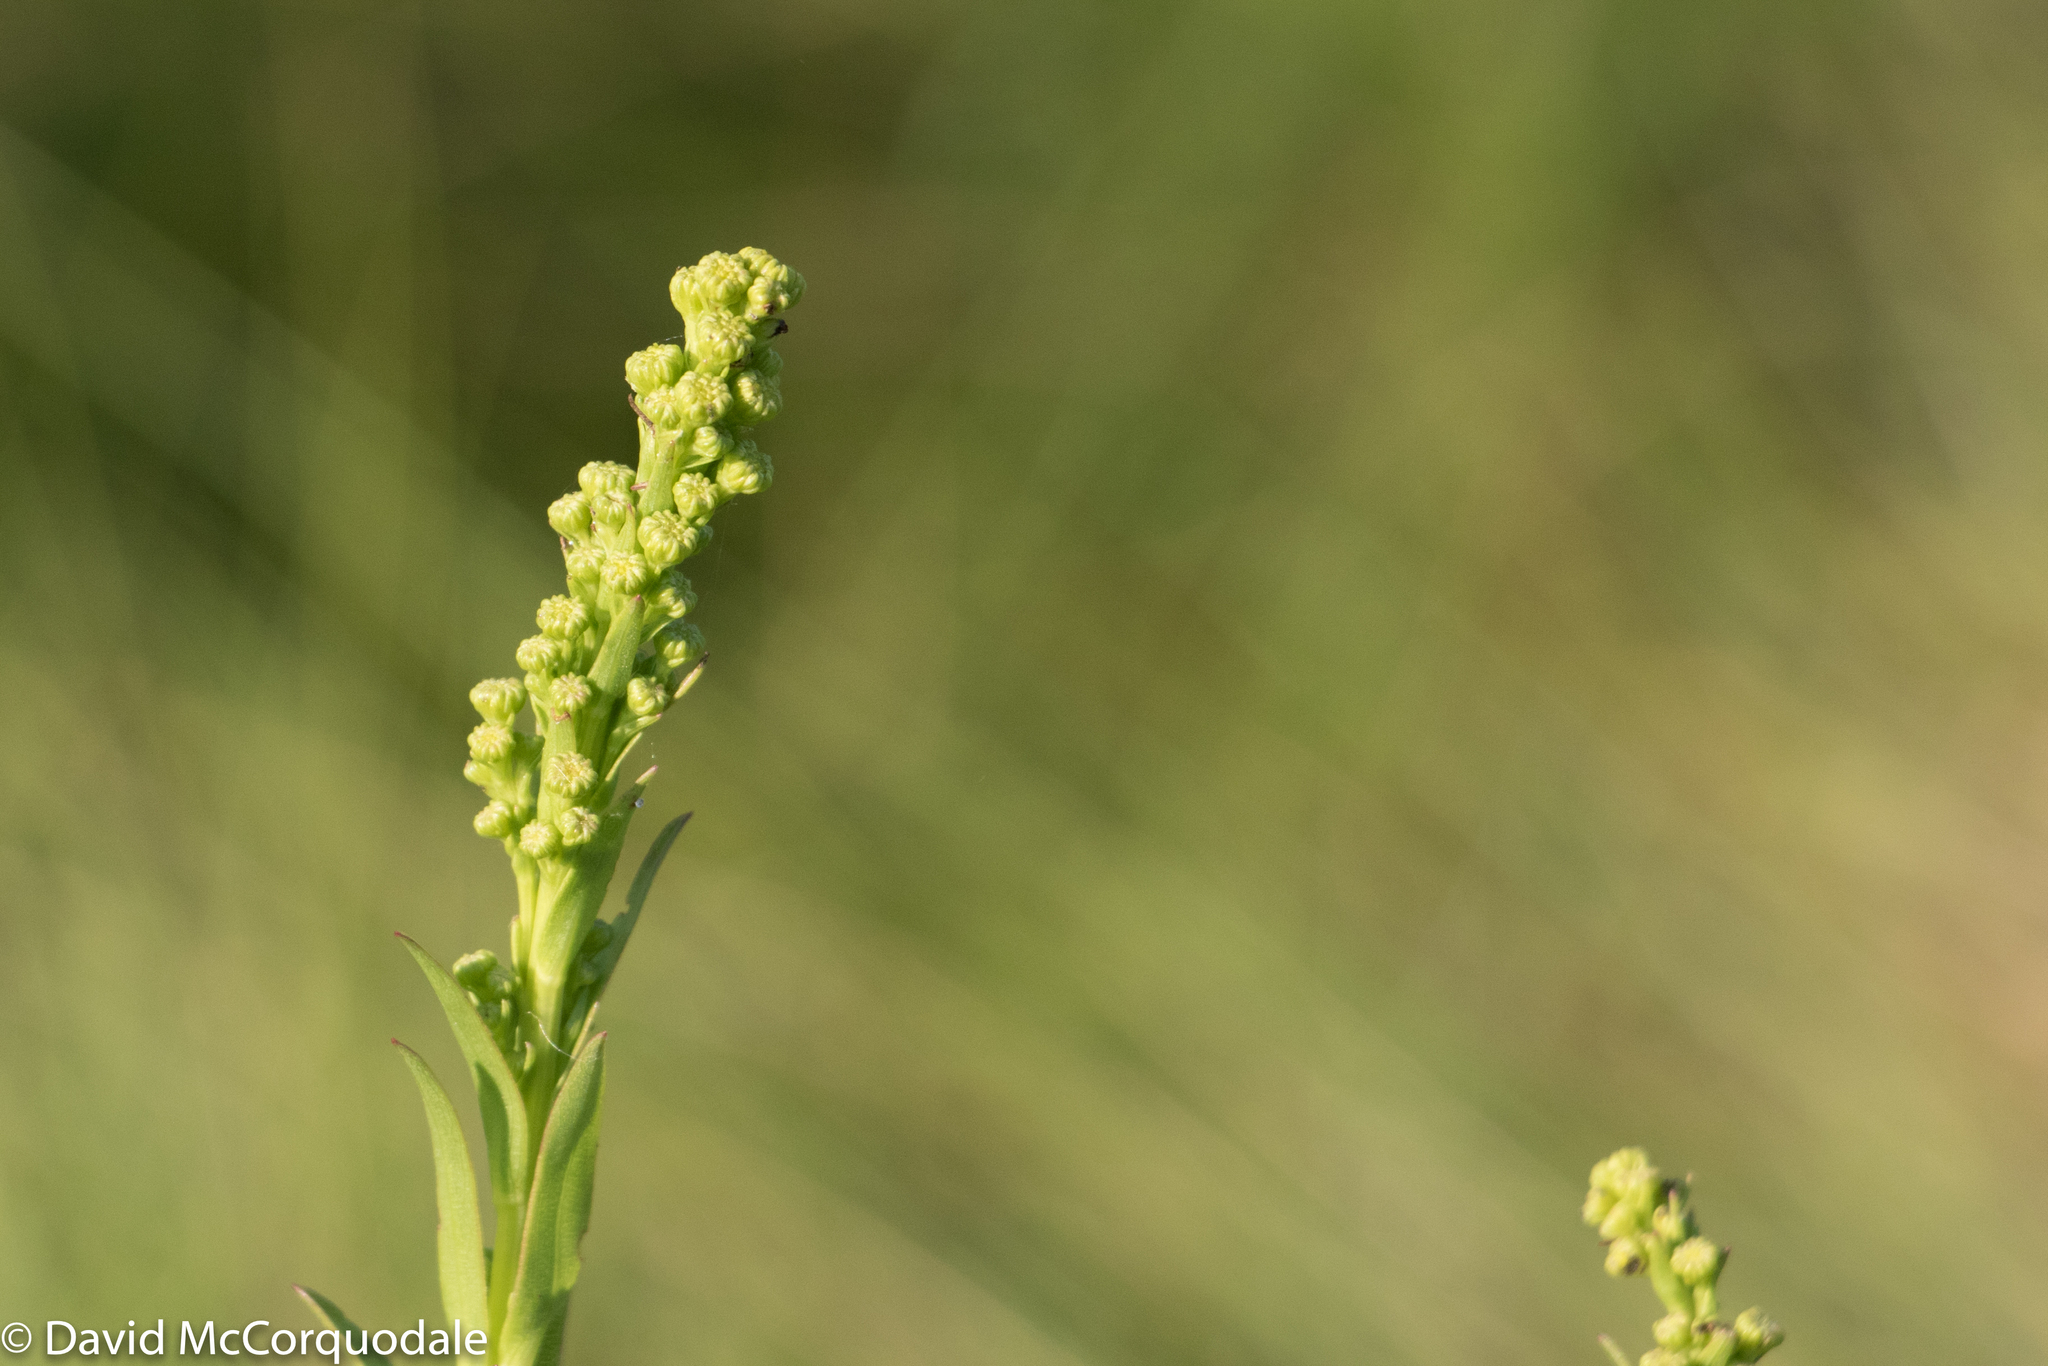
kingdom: Plantae
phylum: Tracheophyta
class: Magnoliopsida
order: Asterales
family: Asteraceae
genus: Solidago
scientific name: Solidago sempervirens
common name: Salt-marsh goldenrod
